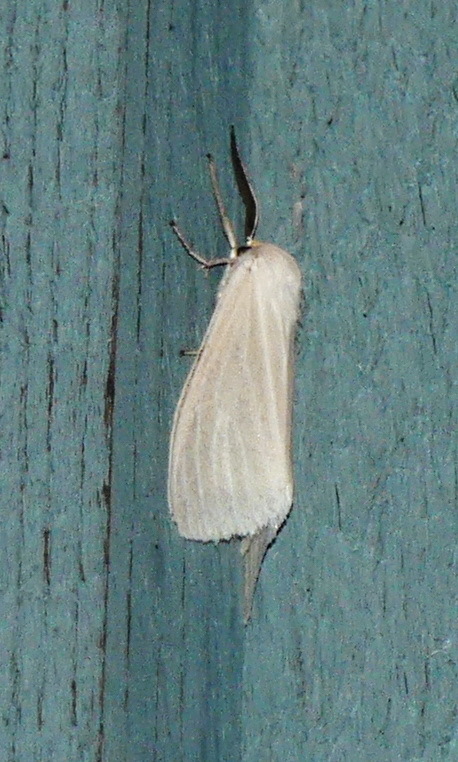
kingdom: Animalia
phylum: Arthropoda
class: Insecta
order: Lepidoptera
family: Erebidae
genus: Cycnia
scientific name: Cycnia oregonensis
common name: Oregon cycnia moth
